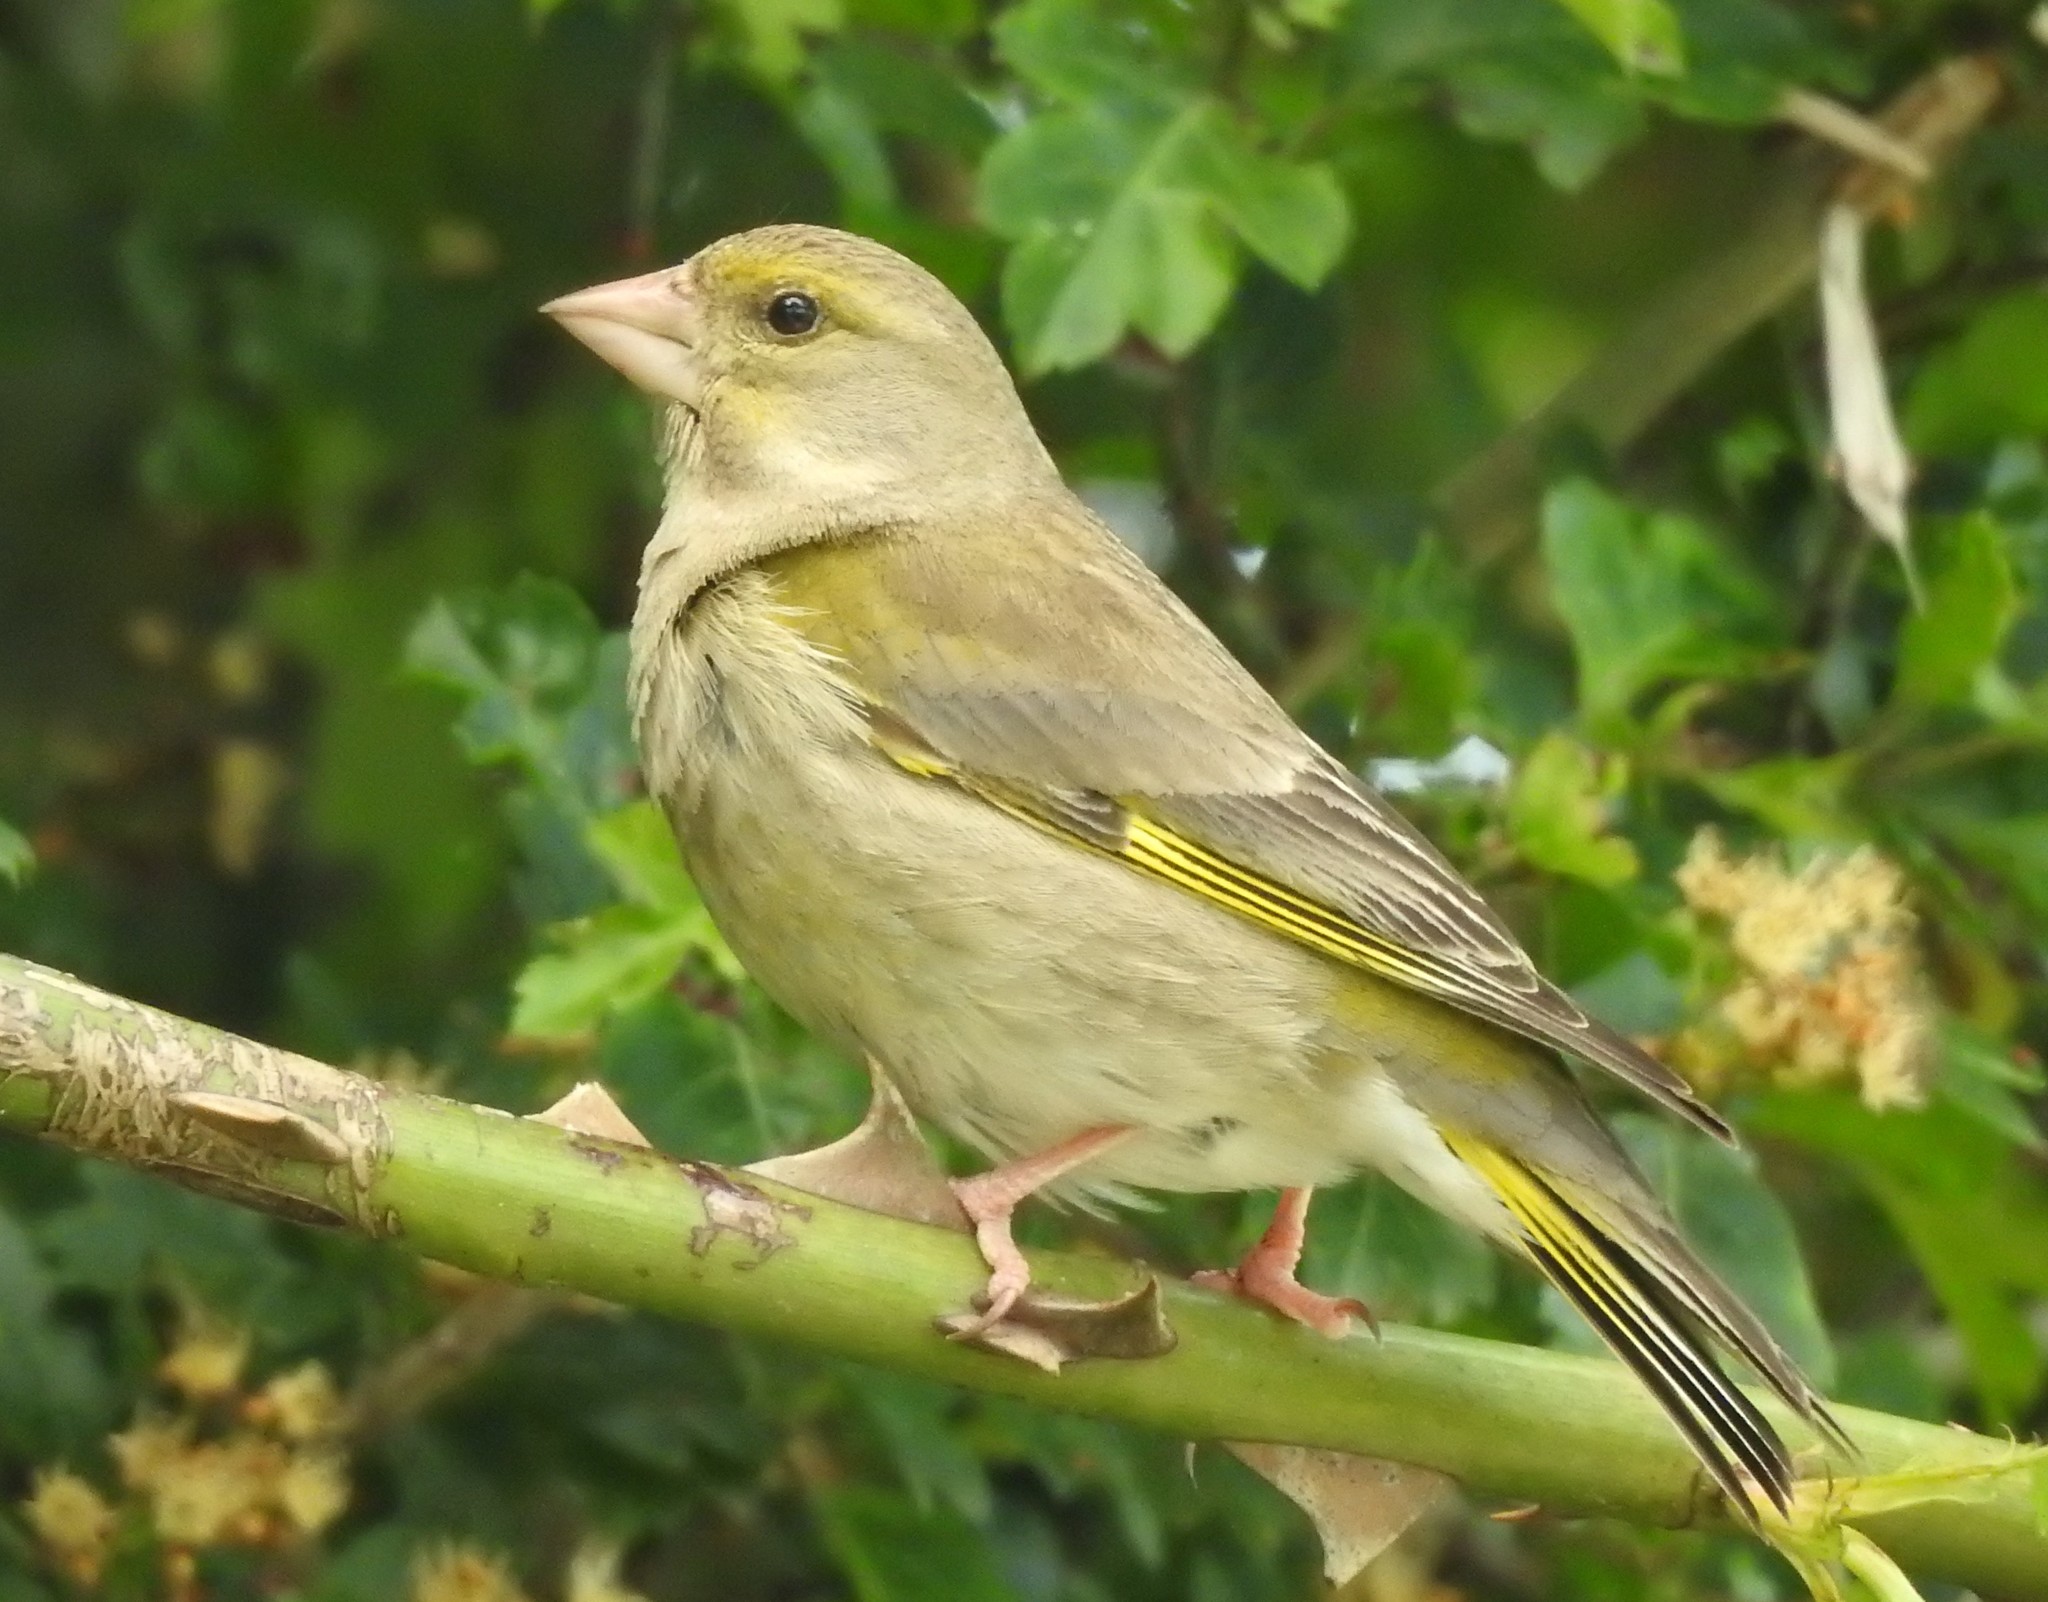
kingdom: Plantae
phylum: Tracheophyta
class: Liliopsida
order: Poales
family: Poaceae
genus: Chloris
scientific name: Chloris chloris
